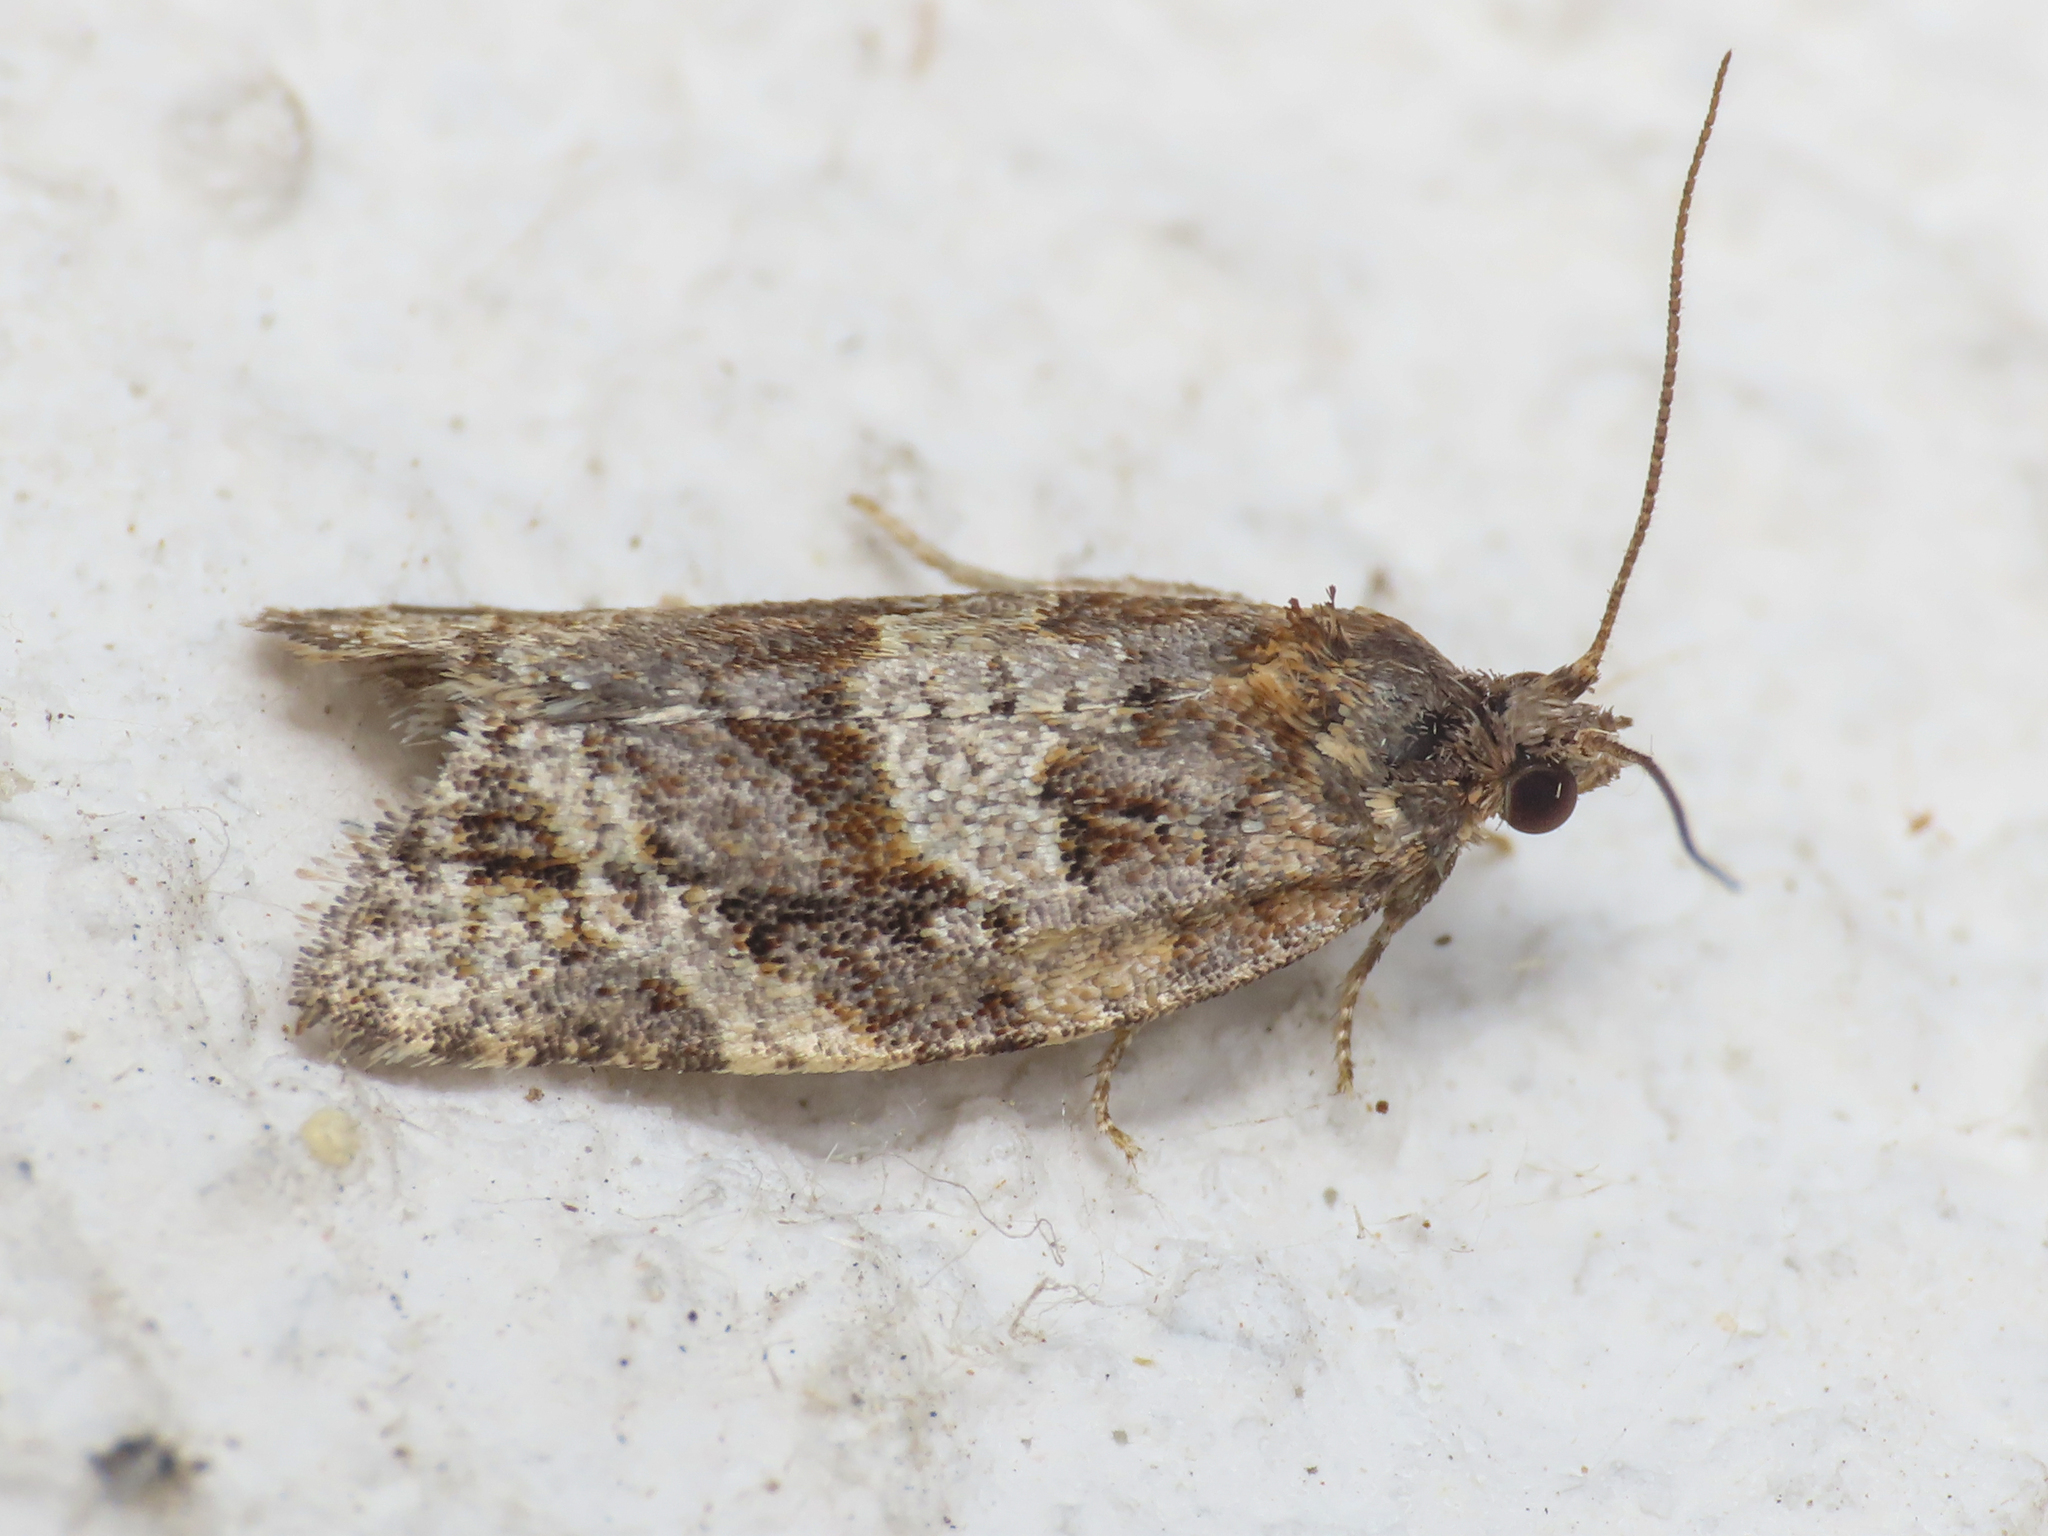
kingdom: Animalia
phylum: Arthropoda
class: Insecta
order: Lepidoptera
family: Tortricidae
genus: Argyrotaenia
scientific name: Argyrotaenia ljungiana
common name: Heather twist
